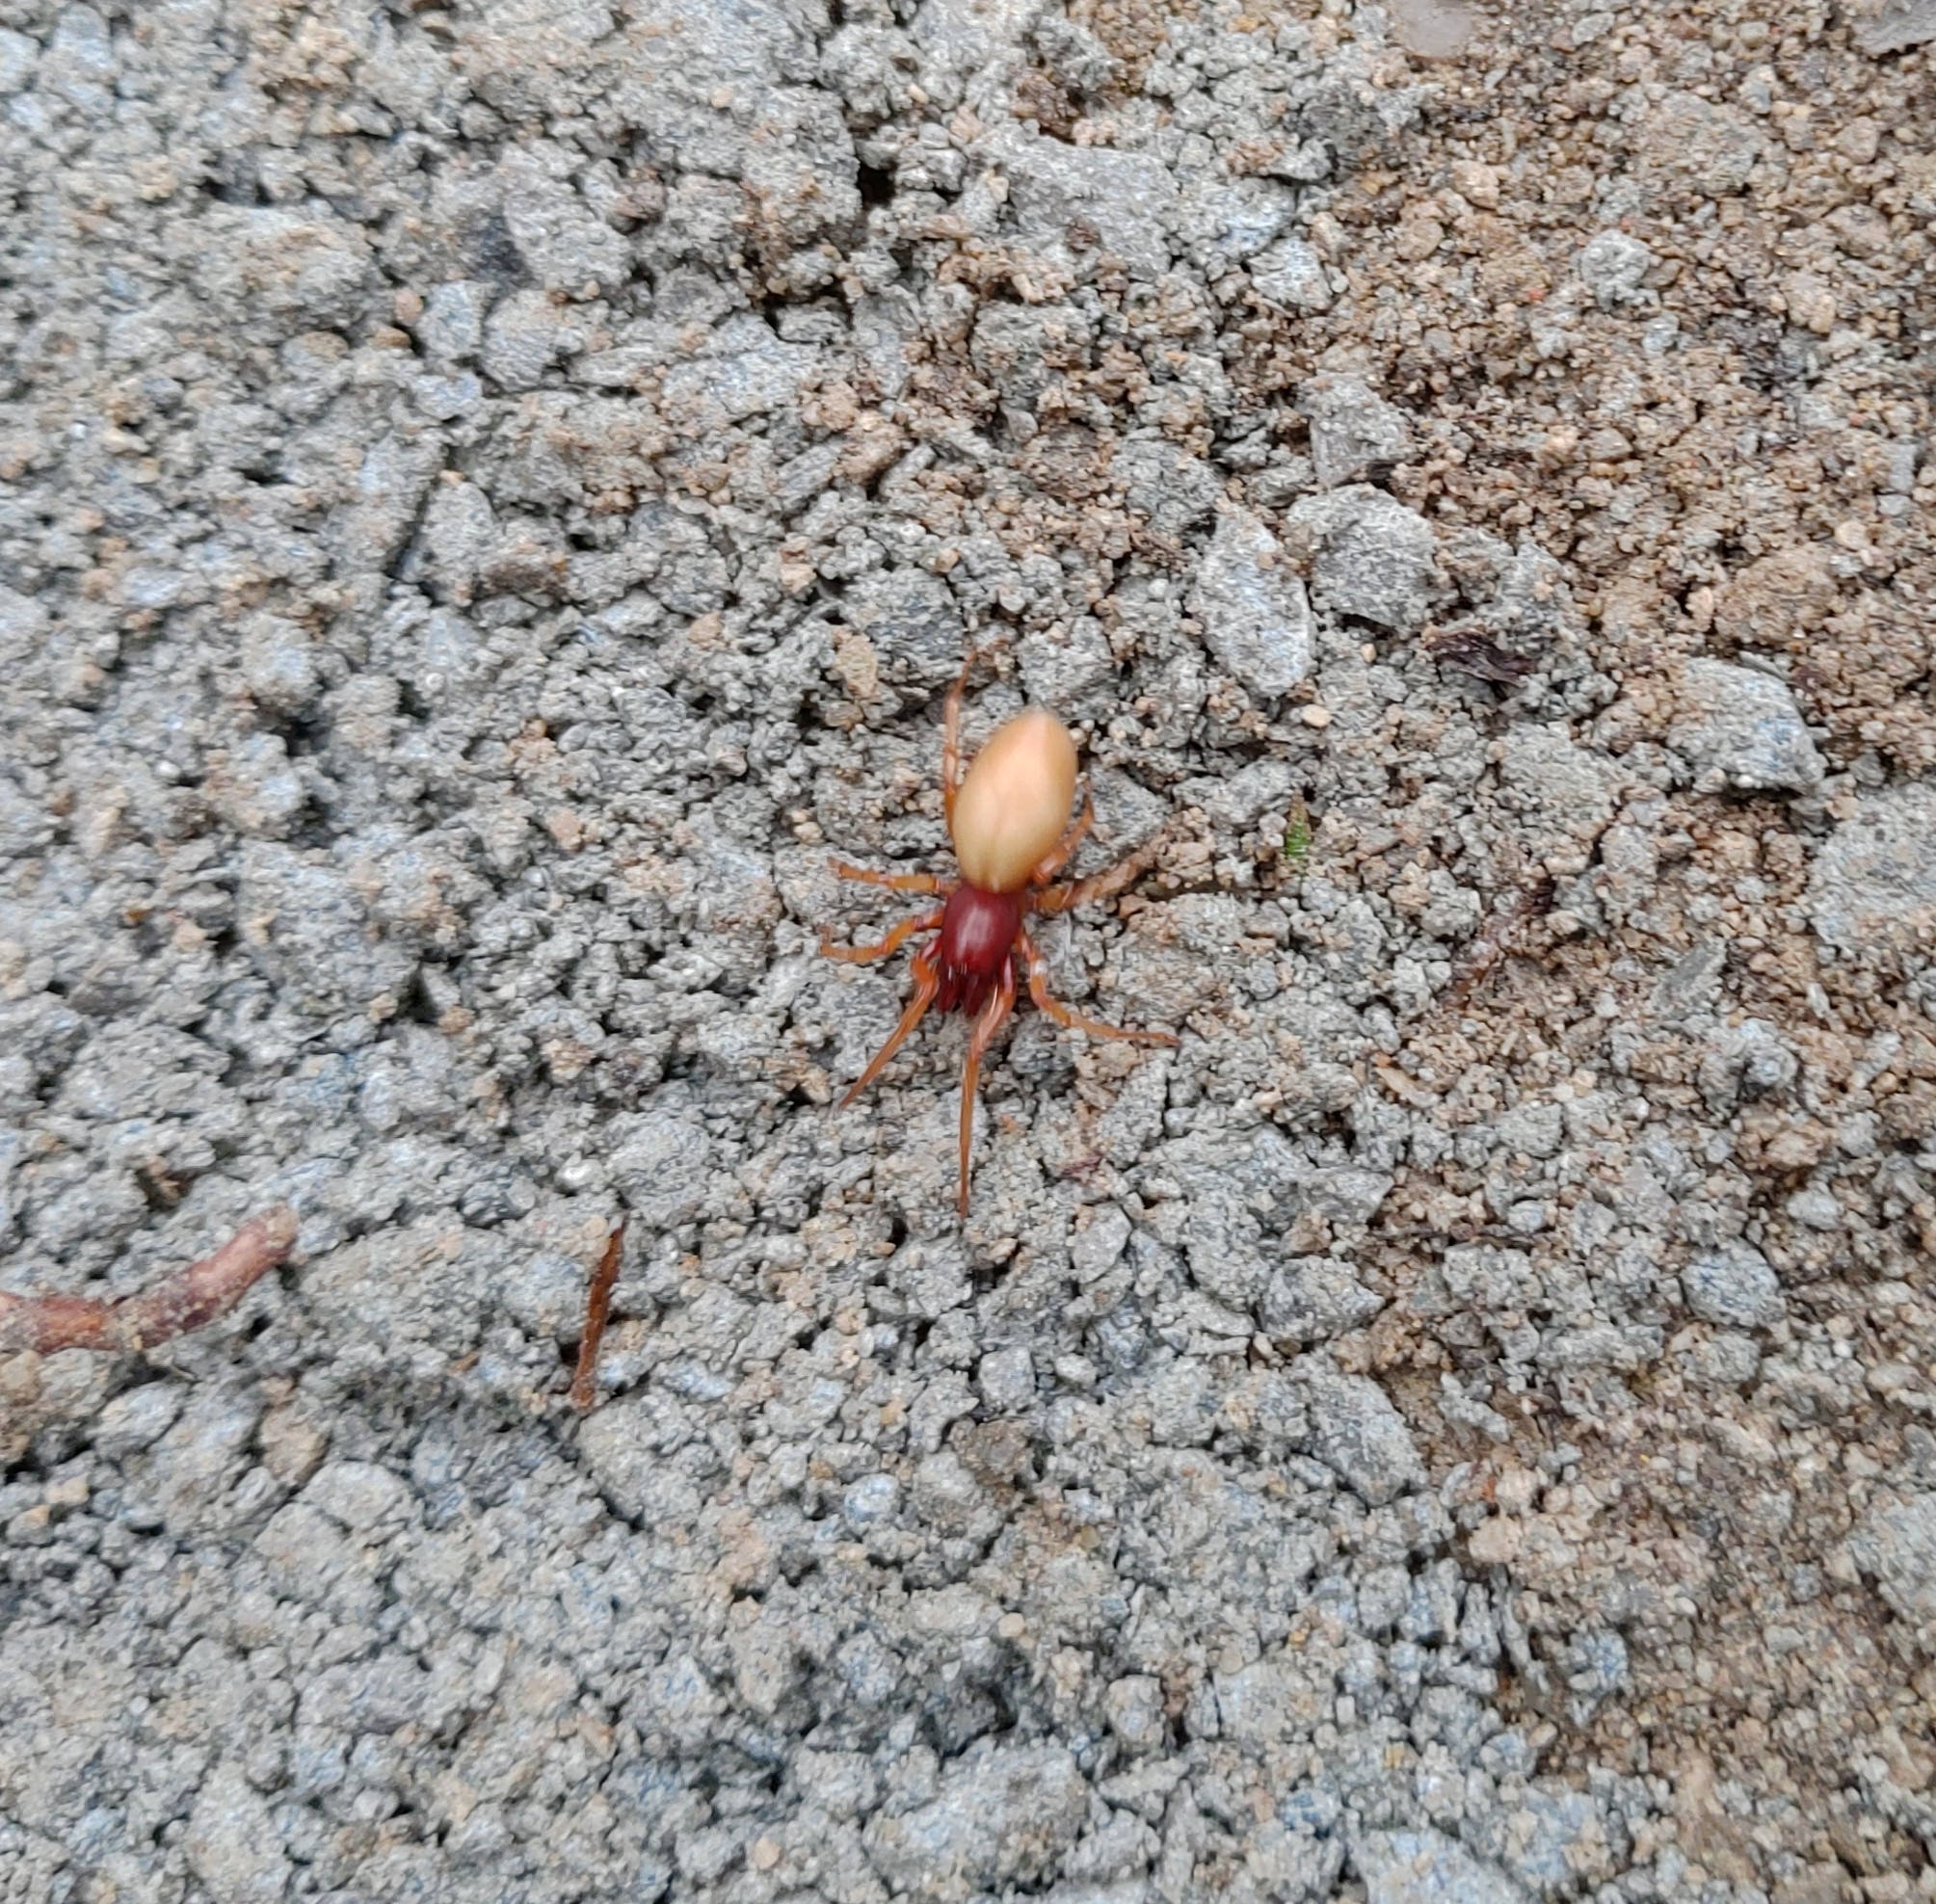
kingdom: Animalia
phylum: Arthropoda
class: Arachnida
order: Araneae
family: Dysderidae
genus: Dysdera
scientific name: Dysdera crocata
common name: Woodlouse spider
